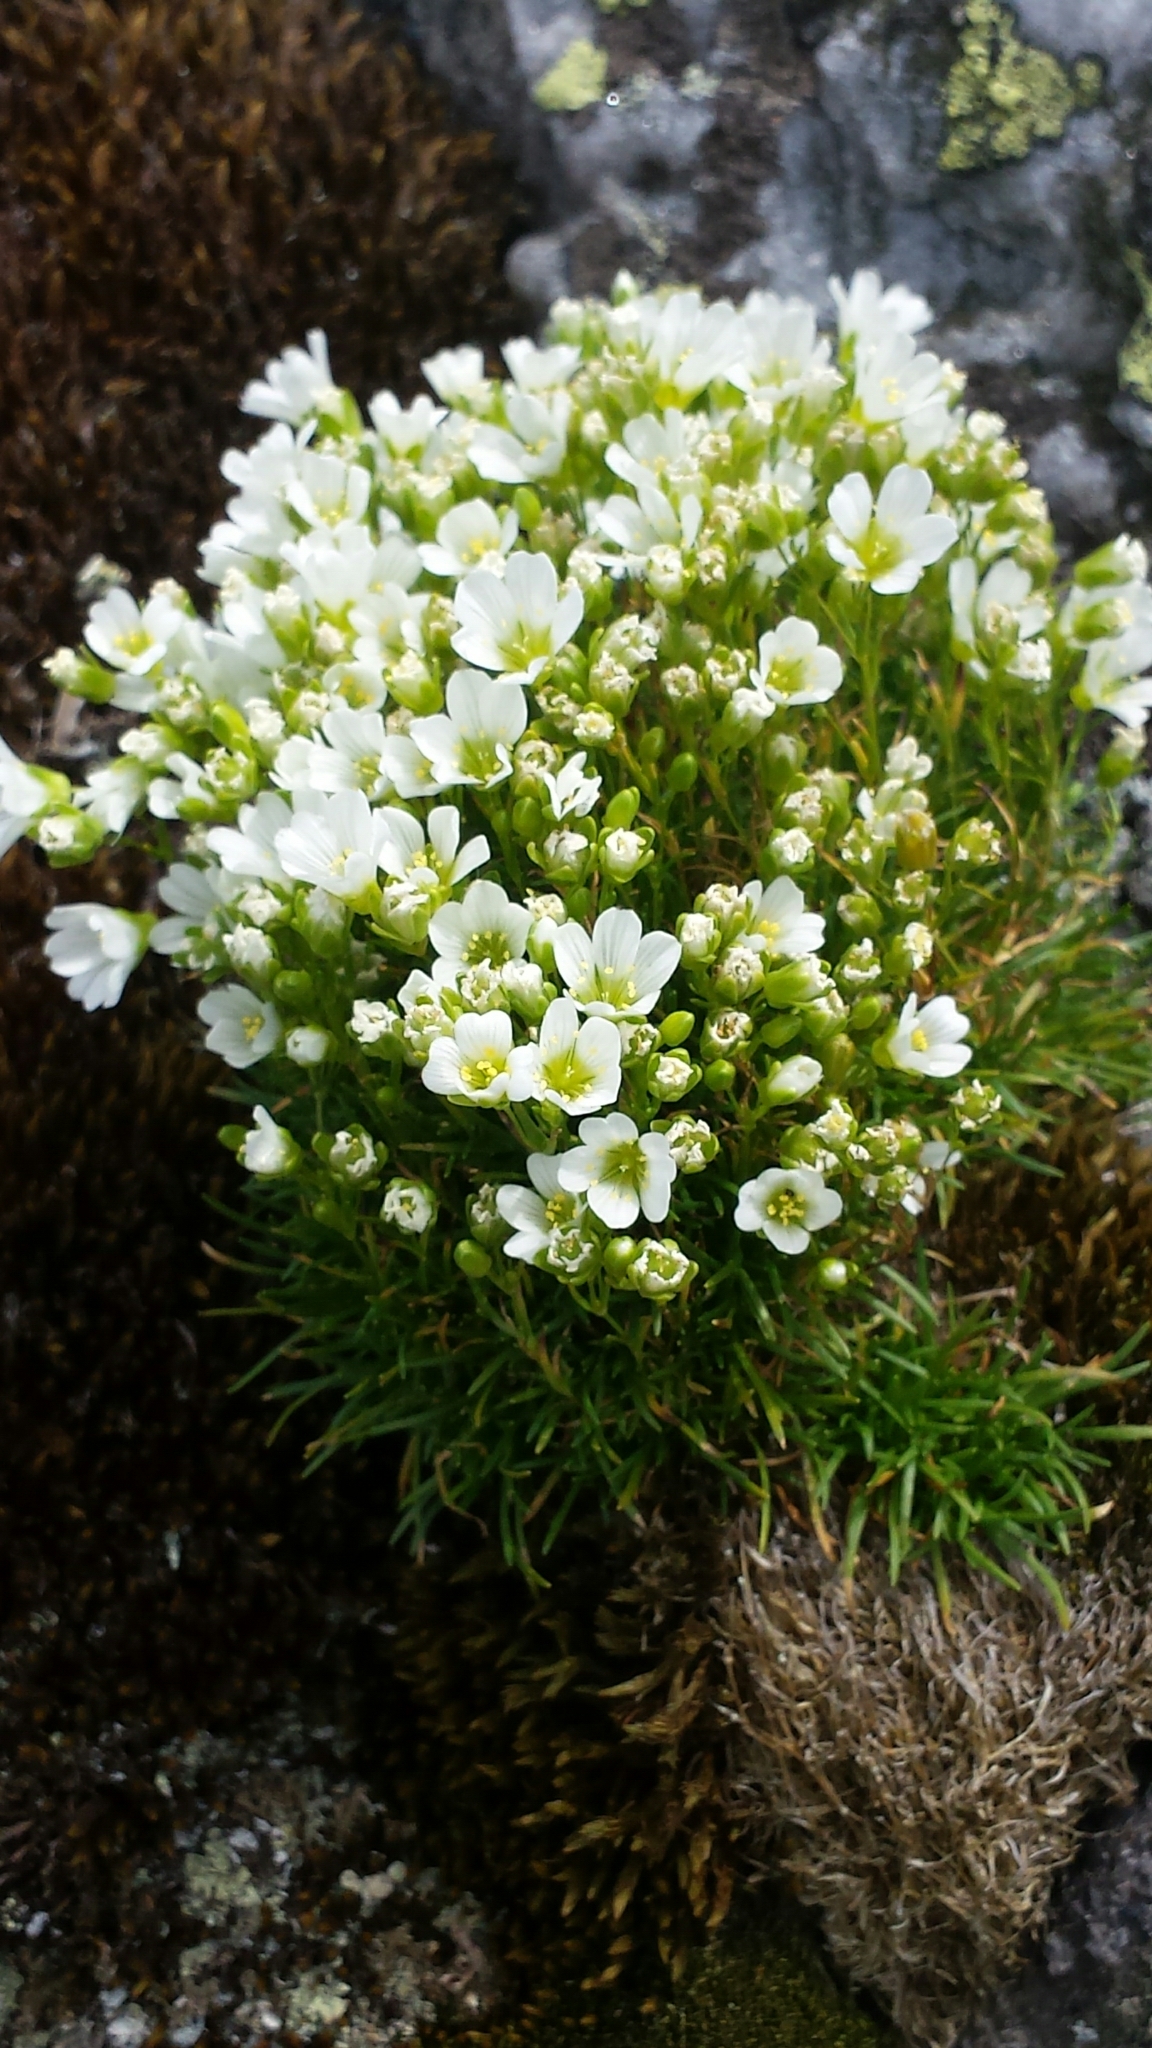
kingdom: Plantae
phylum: Tracheophyta
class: Magnoliopsida
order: Caryophyllales
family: Caryophyllaceae
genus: Geocarpon
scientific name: Geocarpon groenlandicum
